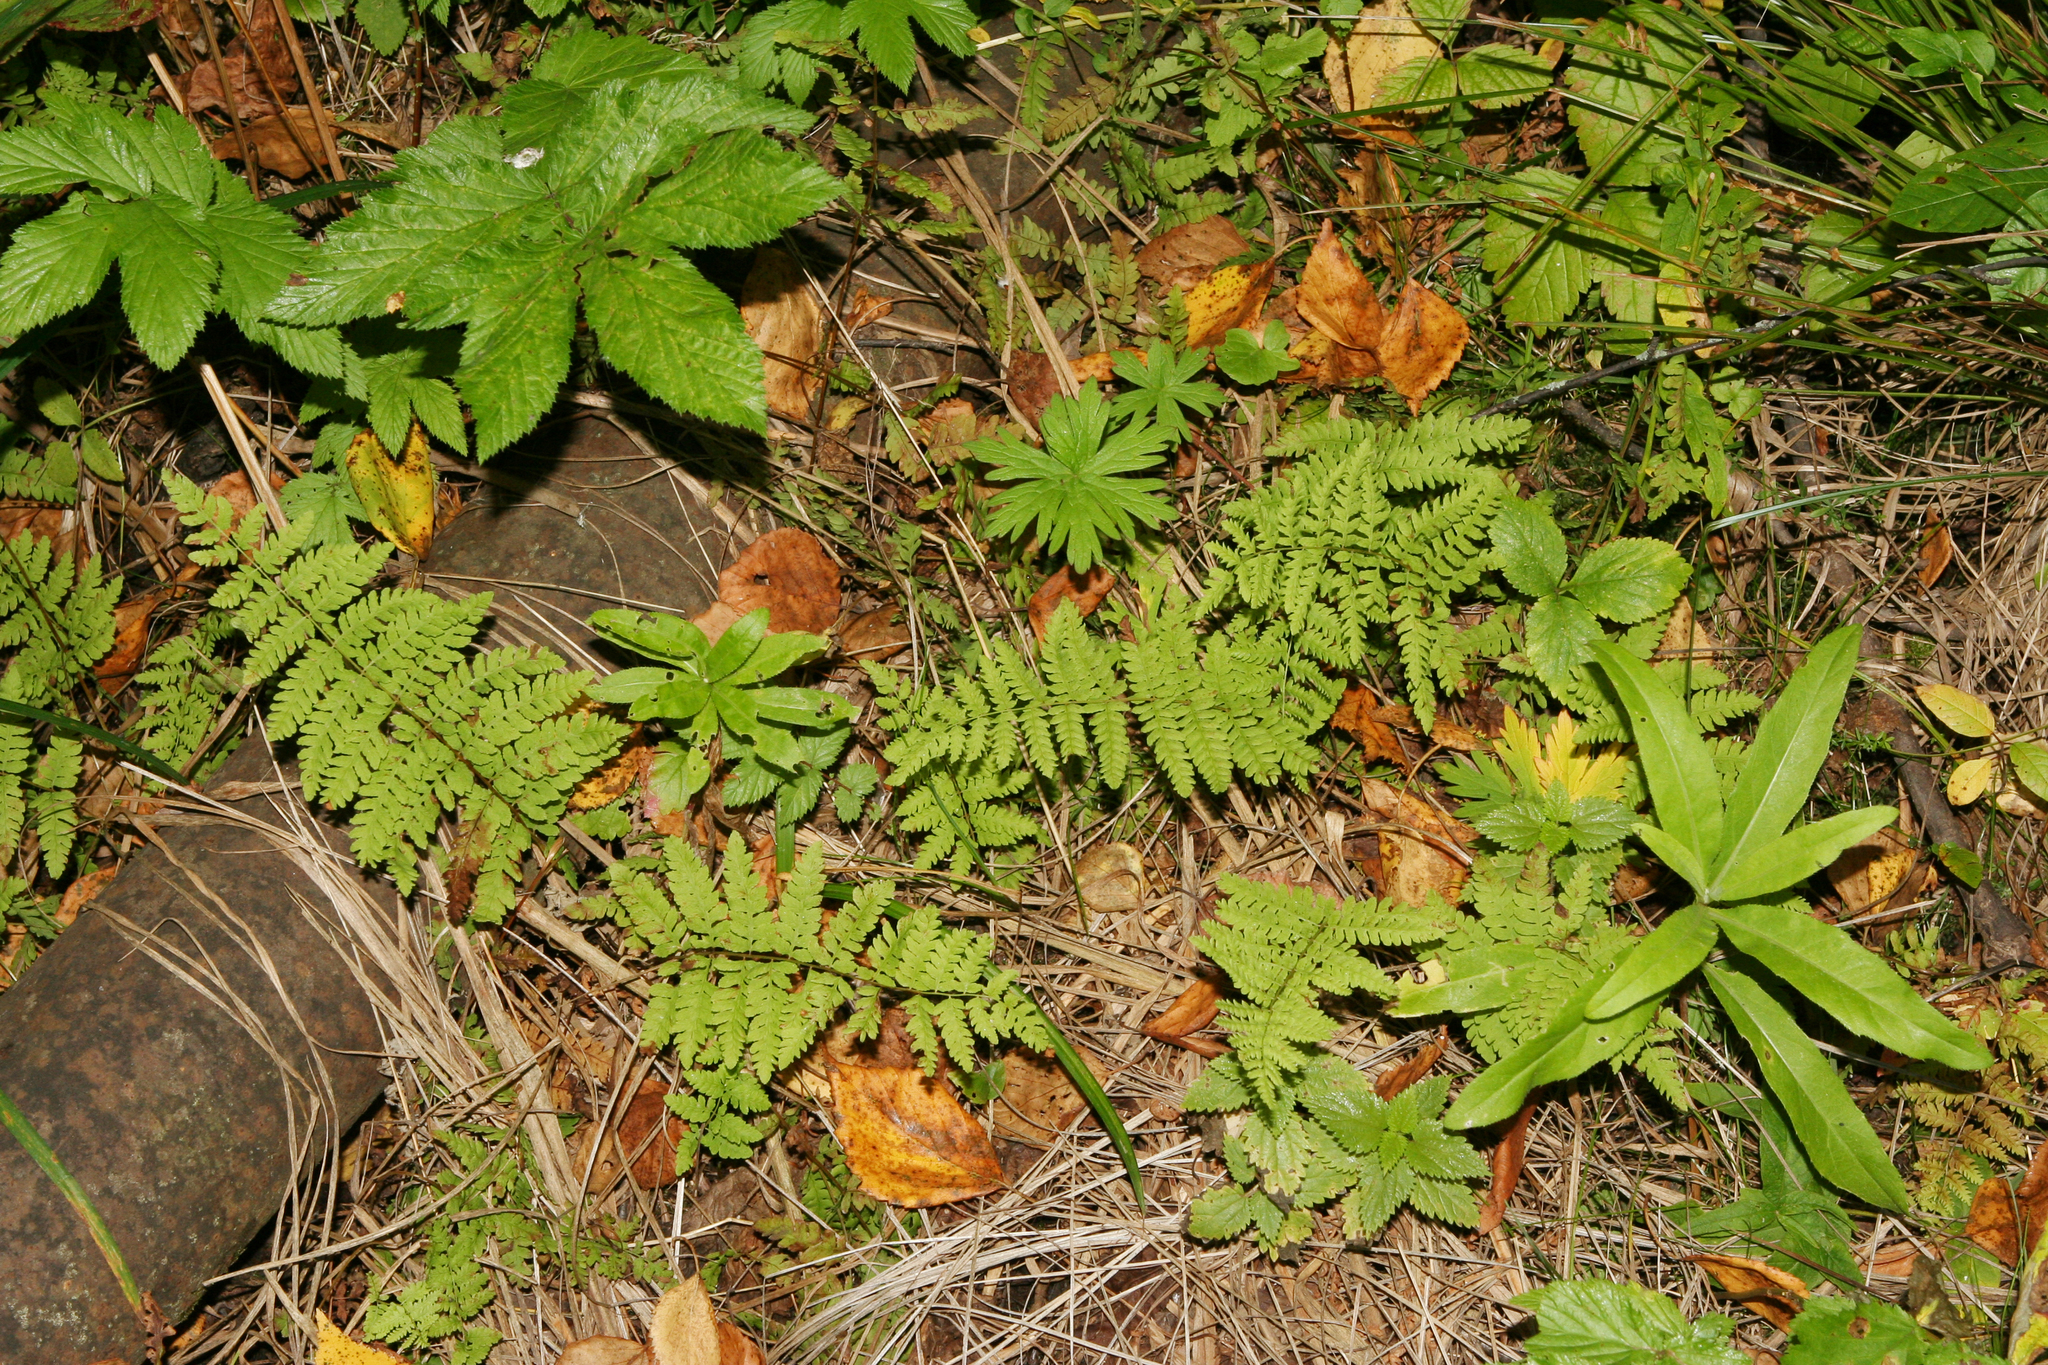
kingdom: Plantae
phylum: Tracheophyta
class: Polypodiopsida
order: Polypodiales
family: Thelypteridaceae
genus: Thelypteris
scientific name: Thelypteris palustris
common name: Marsh fern
